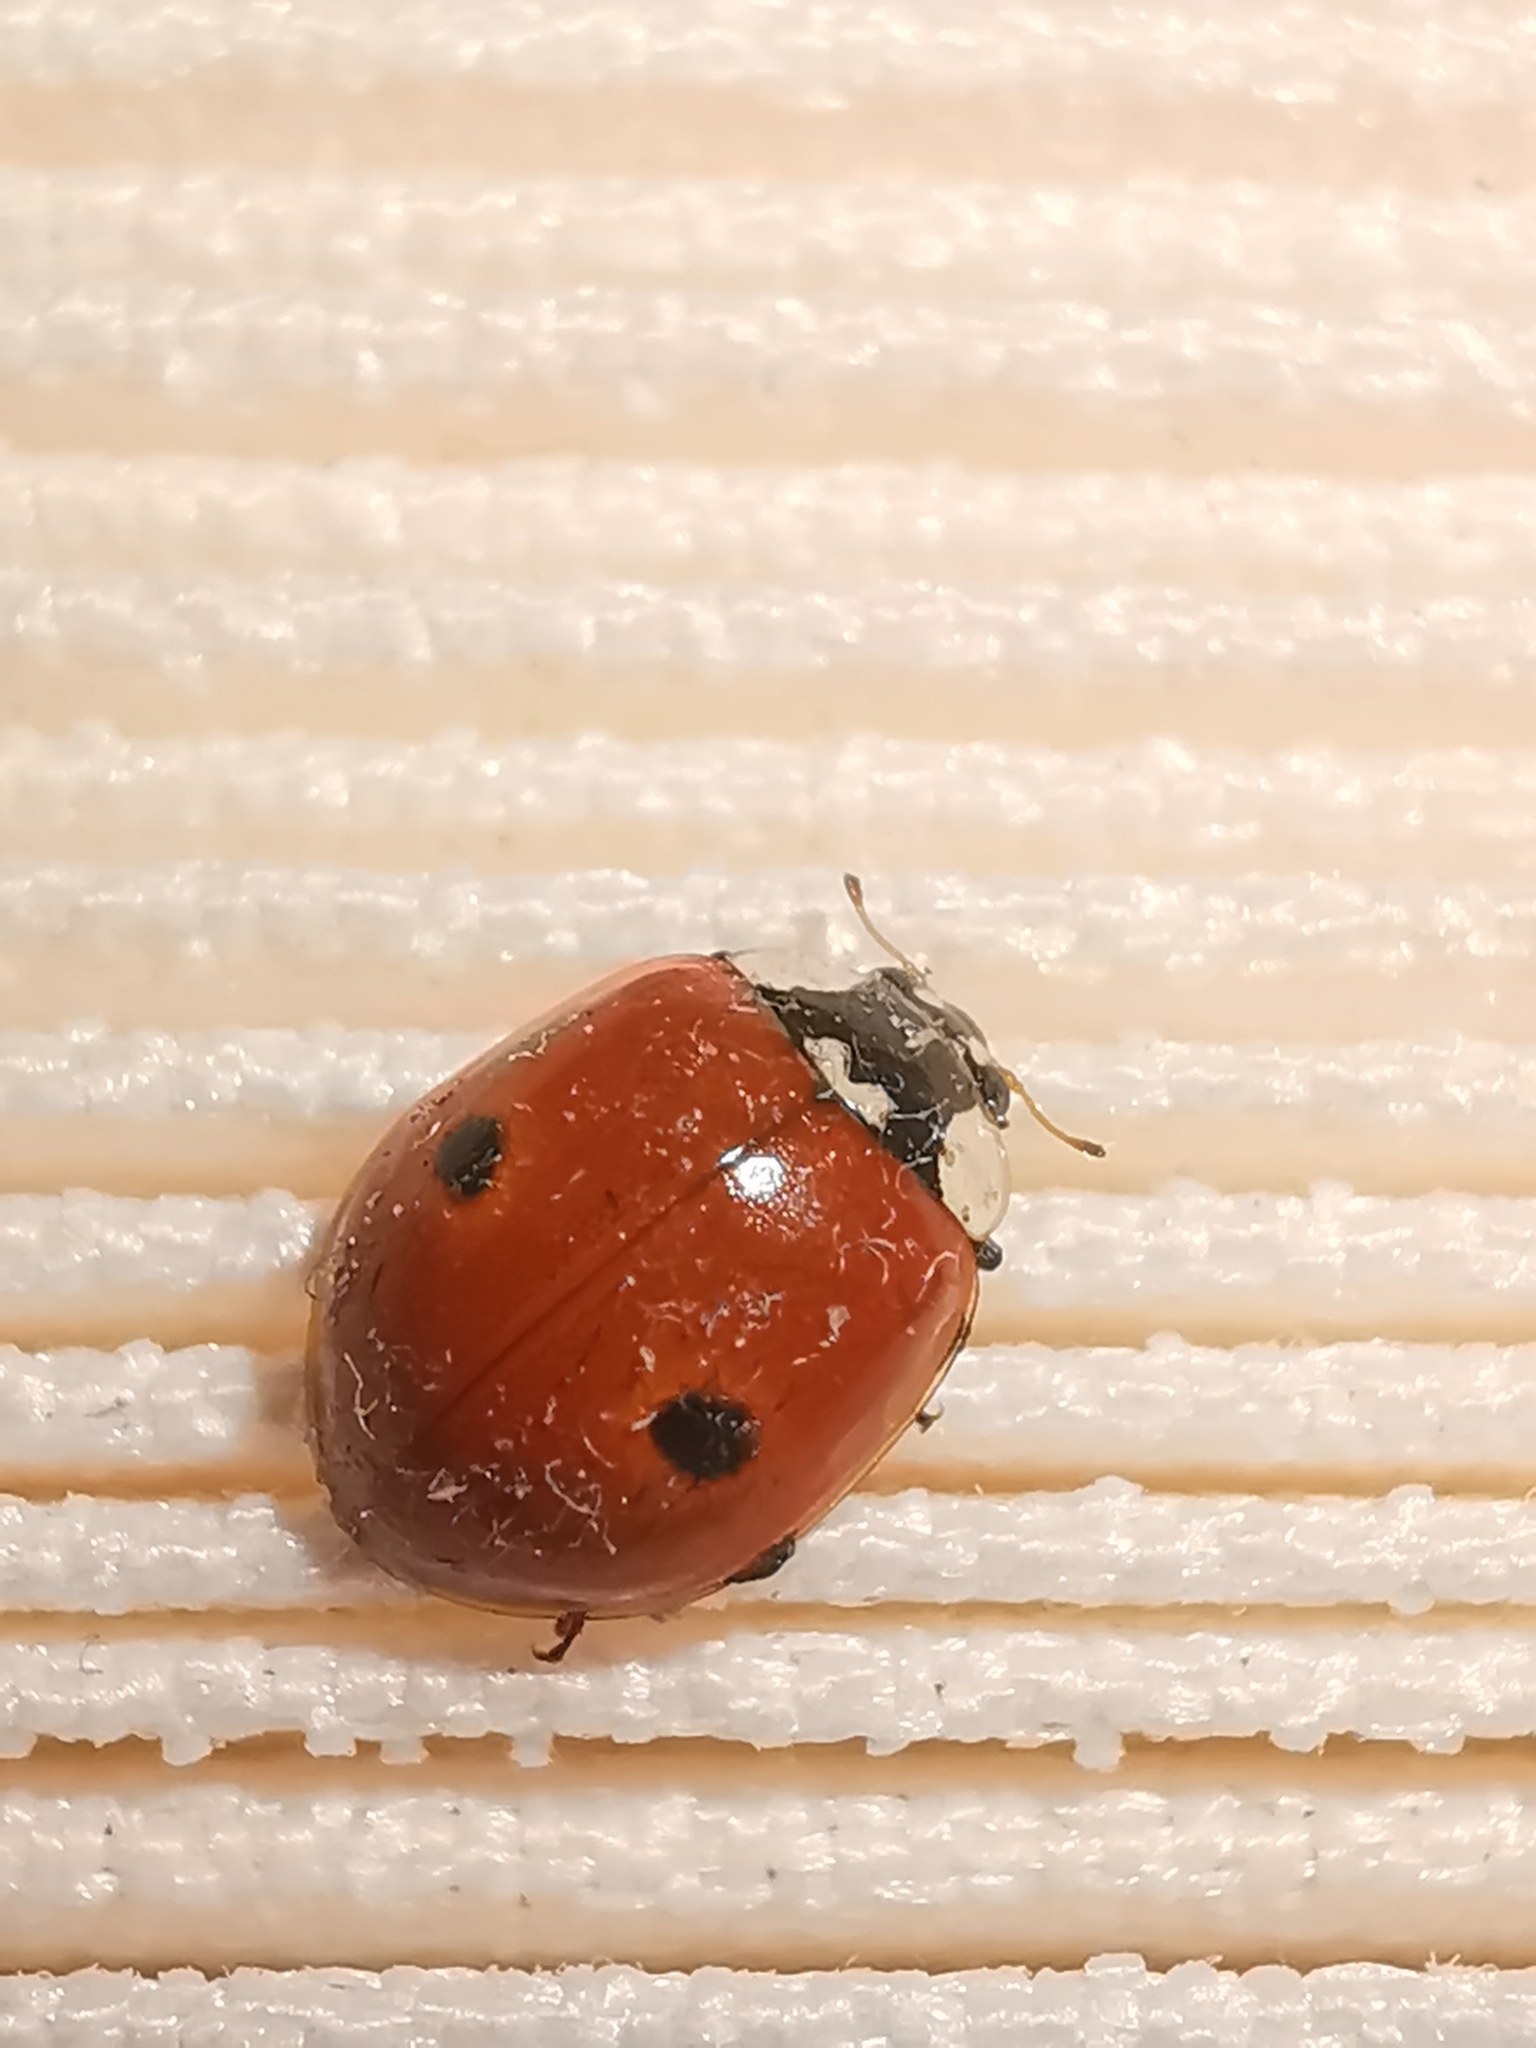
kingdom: Animalia
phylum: Arthropoda
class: Insecta
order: Coleoptera
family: Coccinellidae
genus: Adalia
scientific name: Adalia bipunctata
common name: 2-spot ladybird
